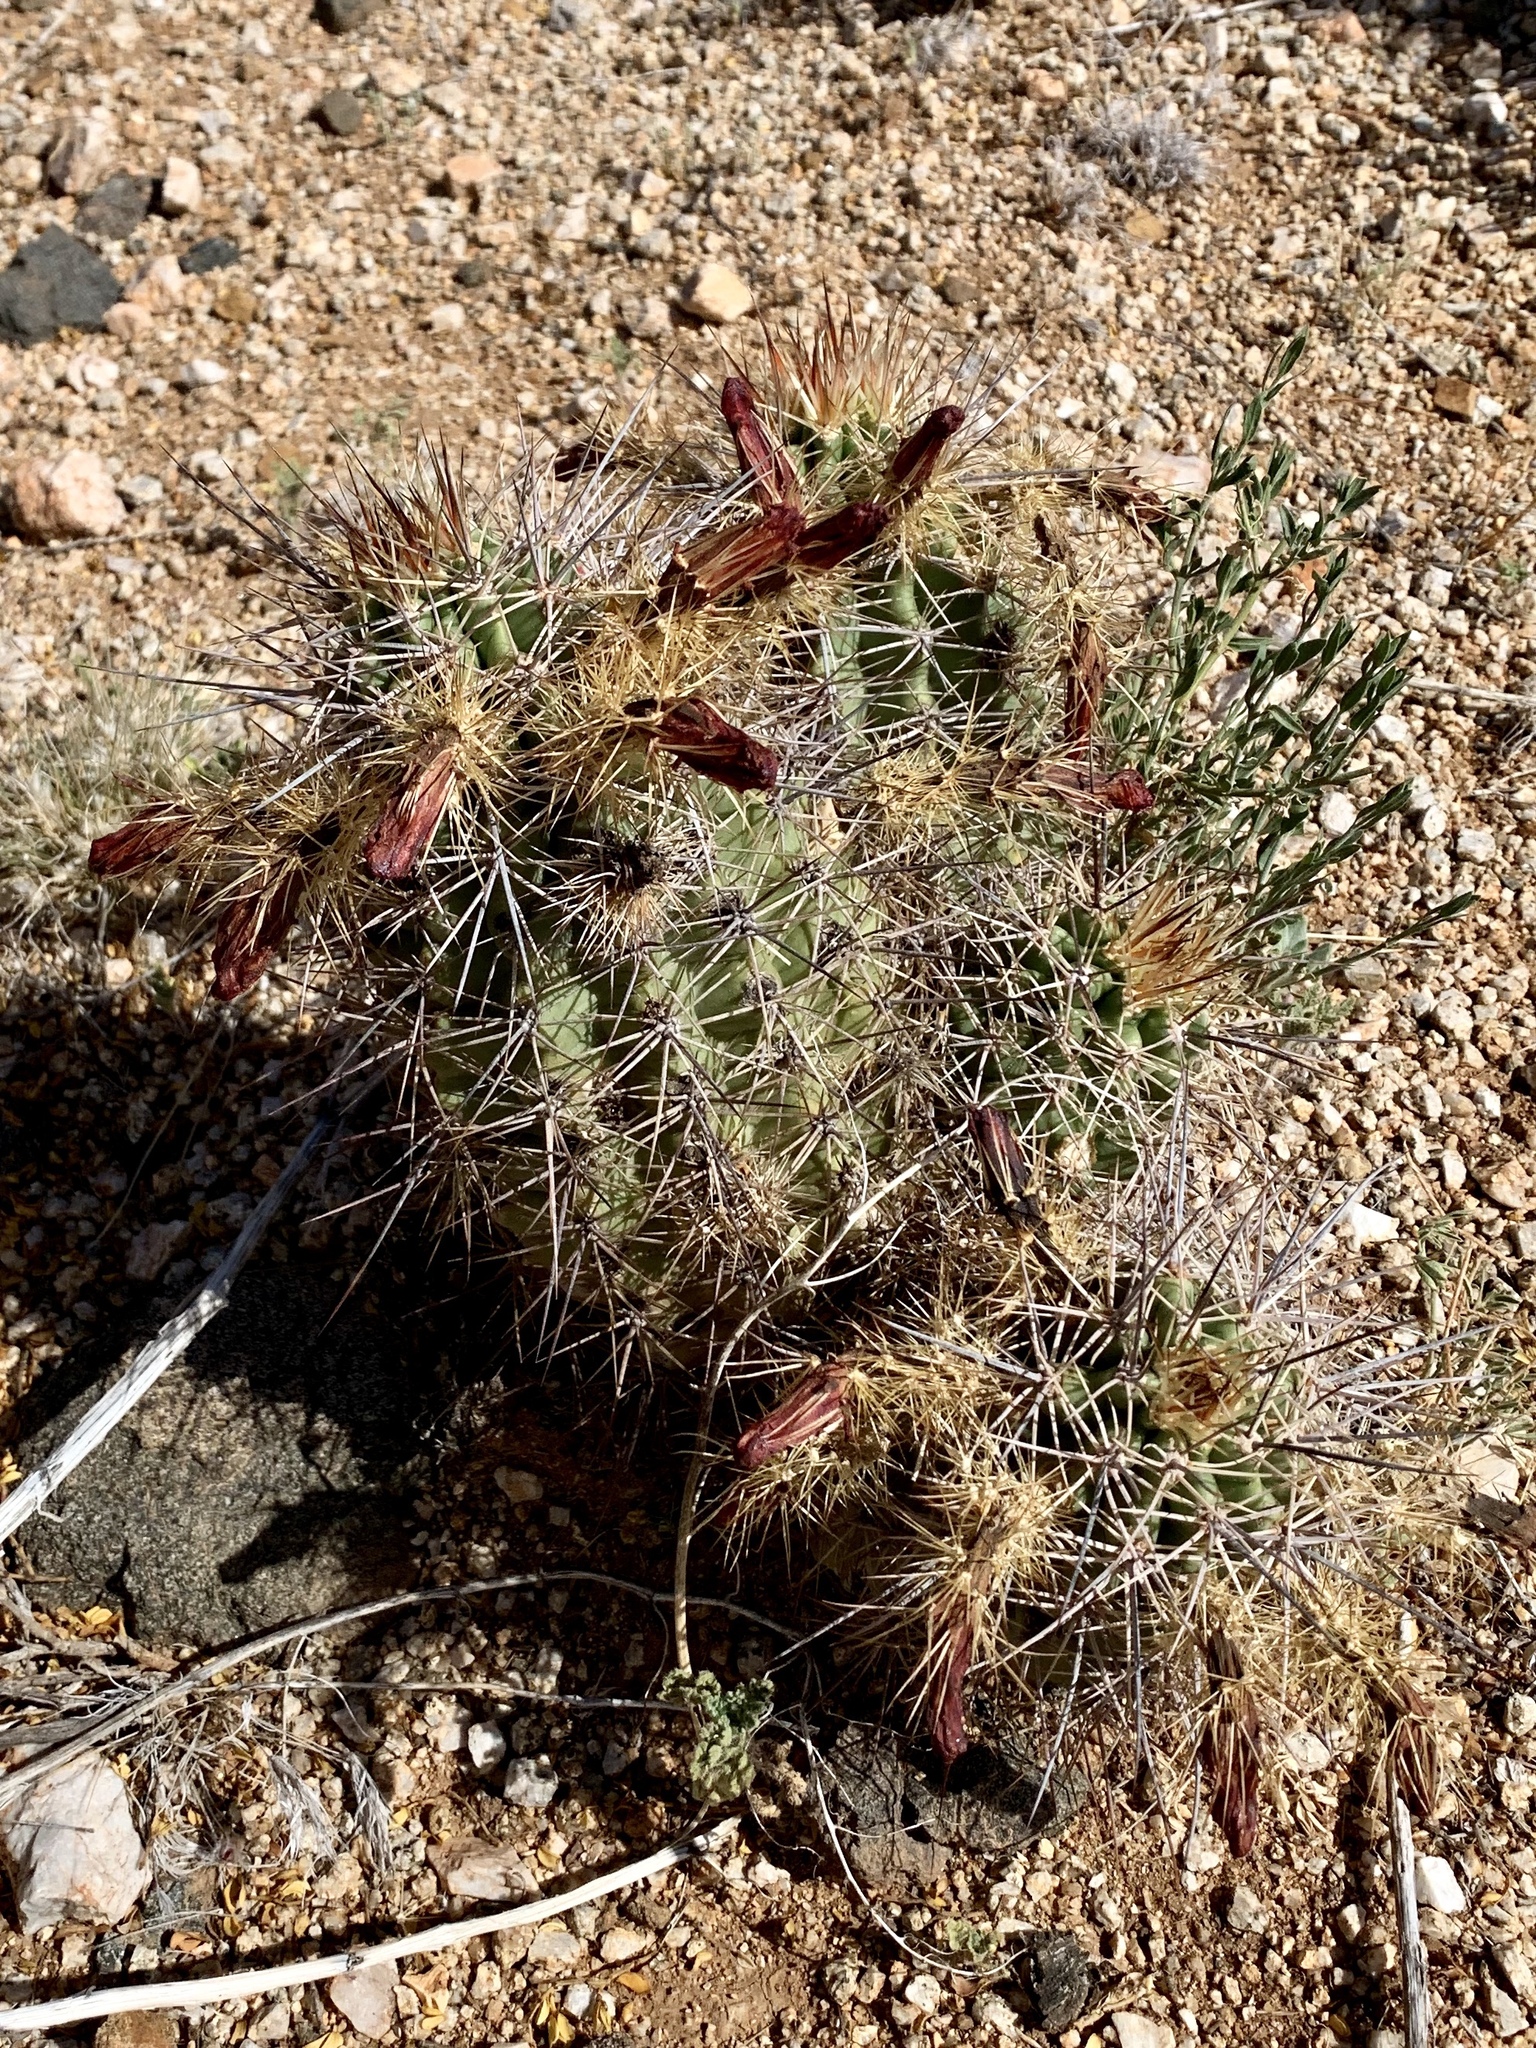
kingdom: Plantae
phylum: Tracheophyta
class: Magnoliopsida
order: Caryophyllales
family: Cactaceae
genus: Echinocereus
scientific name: Echinocereus coccineus
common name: Scarlet hedgehog cactus
